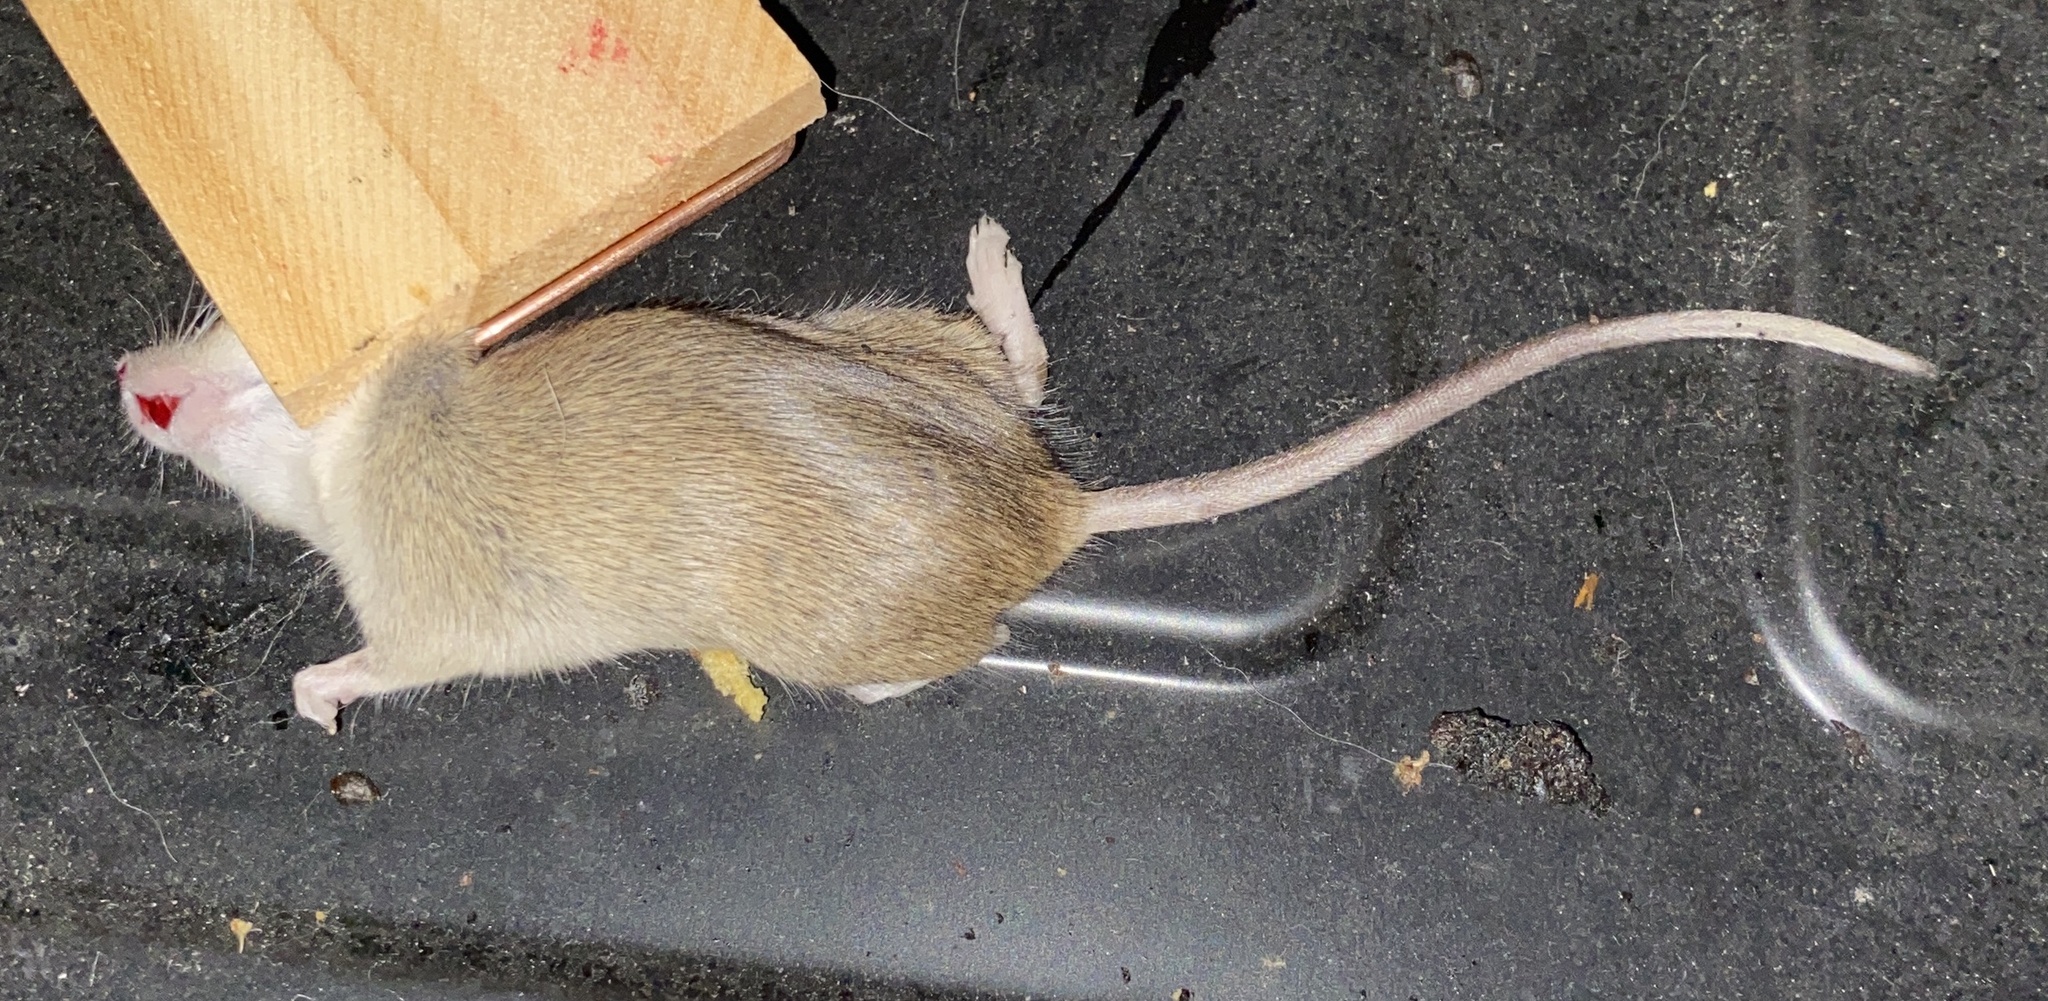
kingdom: Animalia
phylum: Chordata
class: Mammalia
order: Rodentia
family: Muridae
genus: Mus
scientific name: Mus musculus
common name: House mouse
